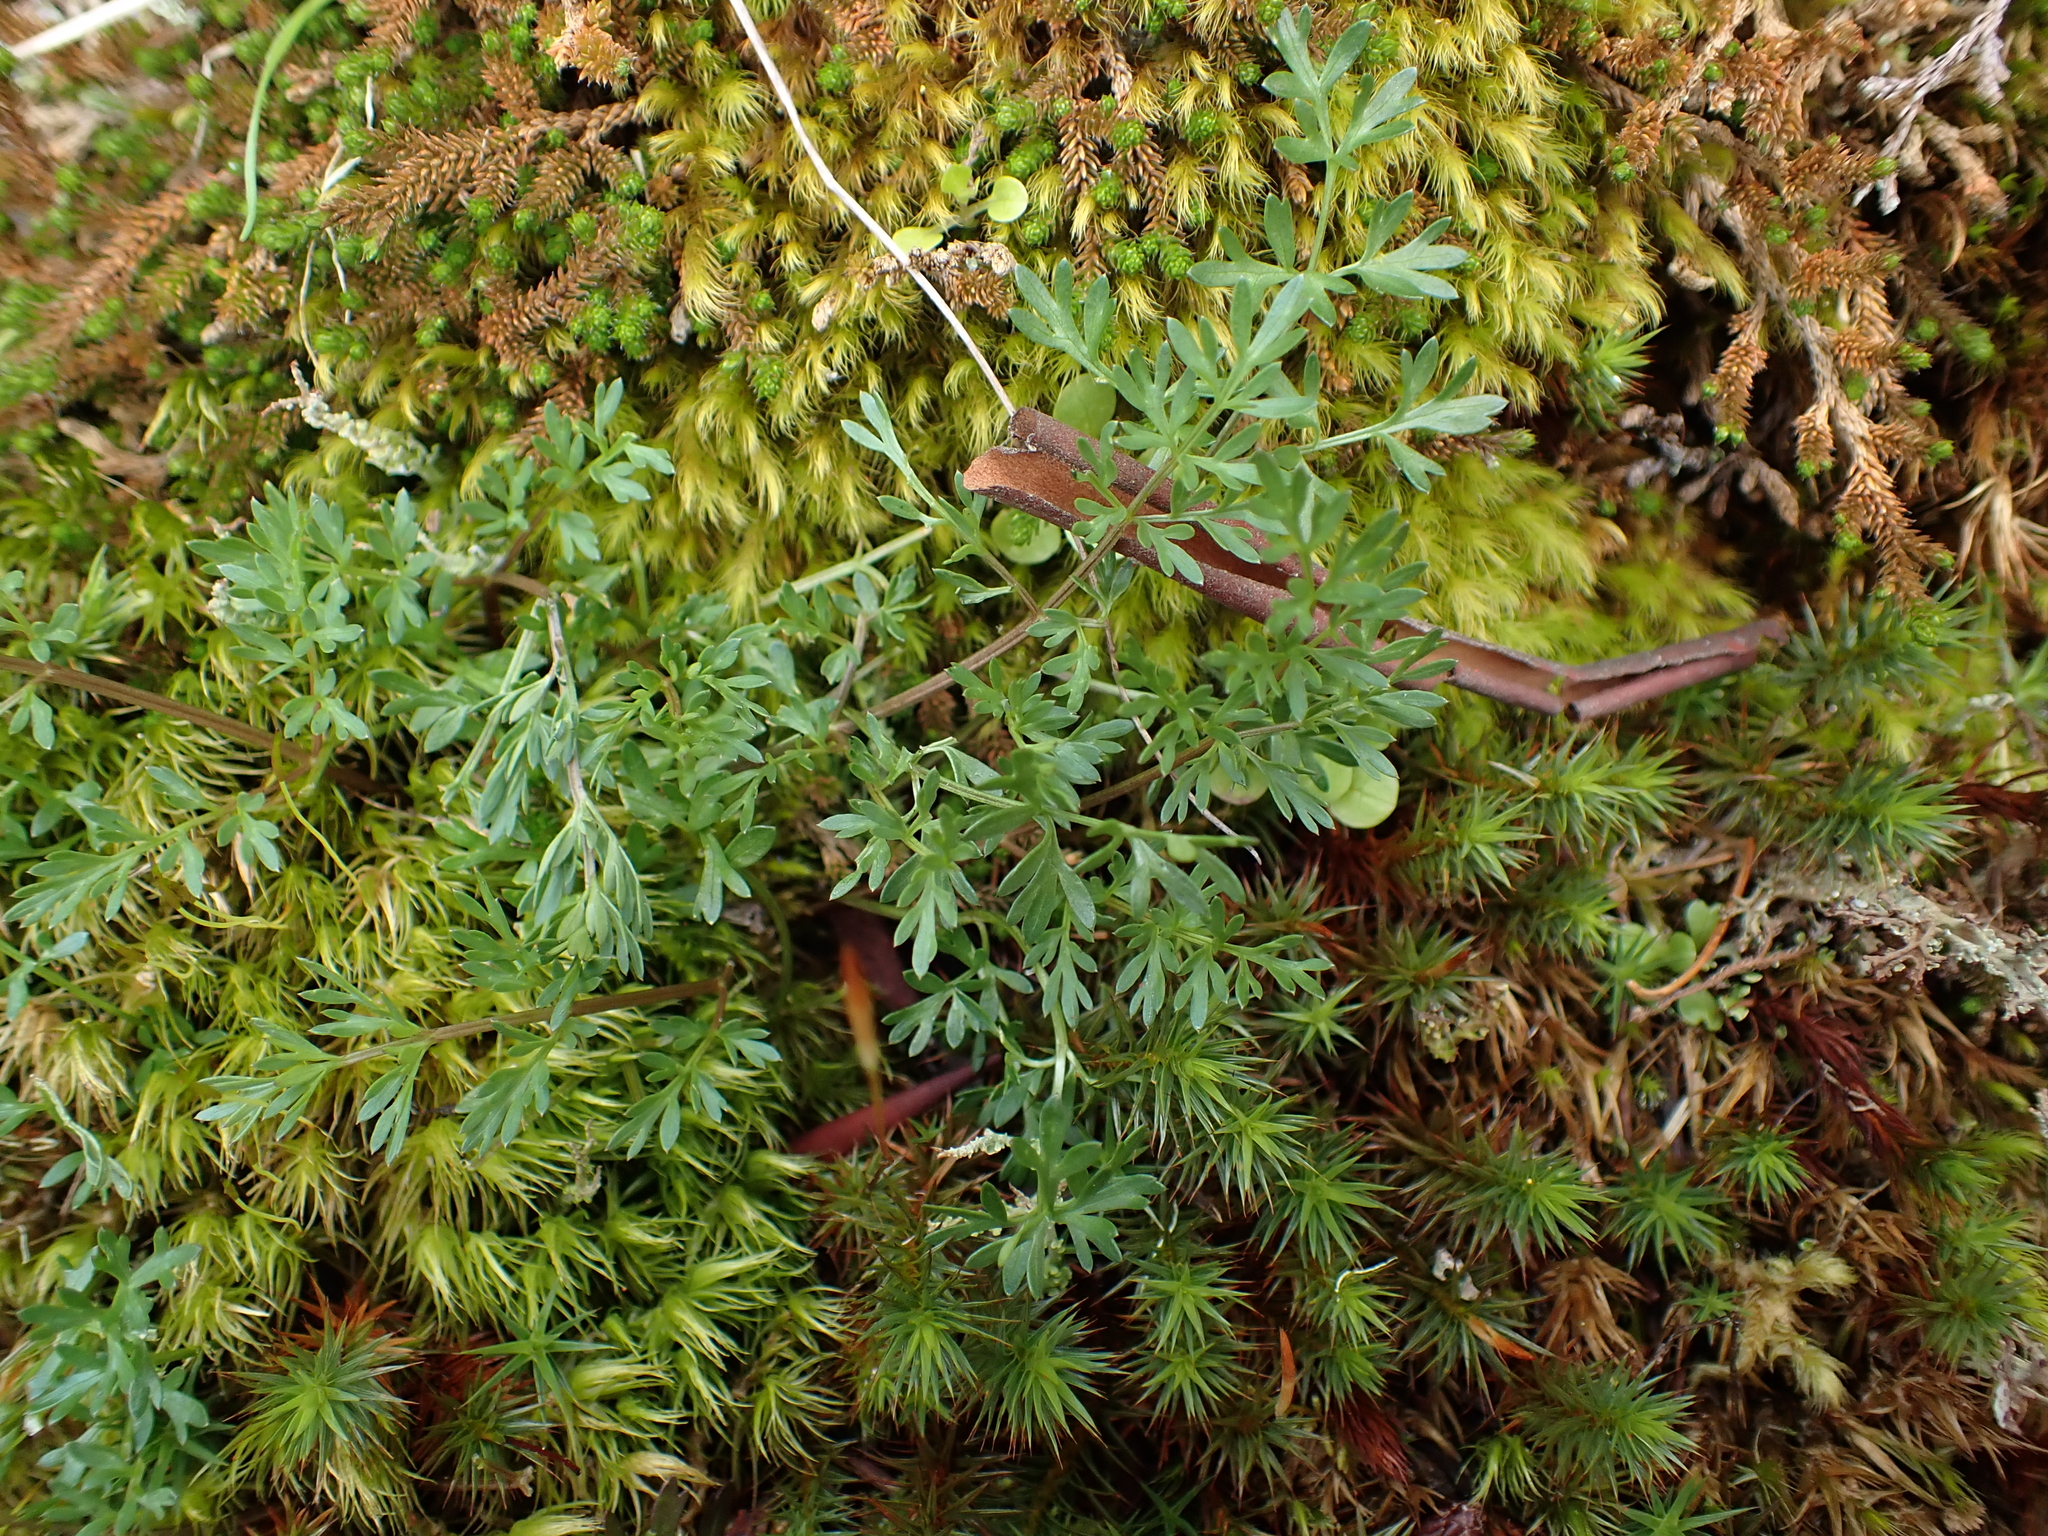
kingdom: Plantae
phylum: Tracheophyta
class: Magnoliopsida
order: Apiales
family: Apiaceae
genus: Lomatium
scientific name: Lomatium utriculatum
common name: Fine-leaf desert-parsley
